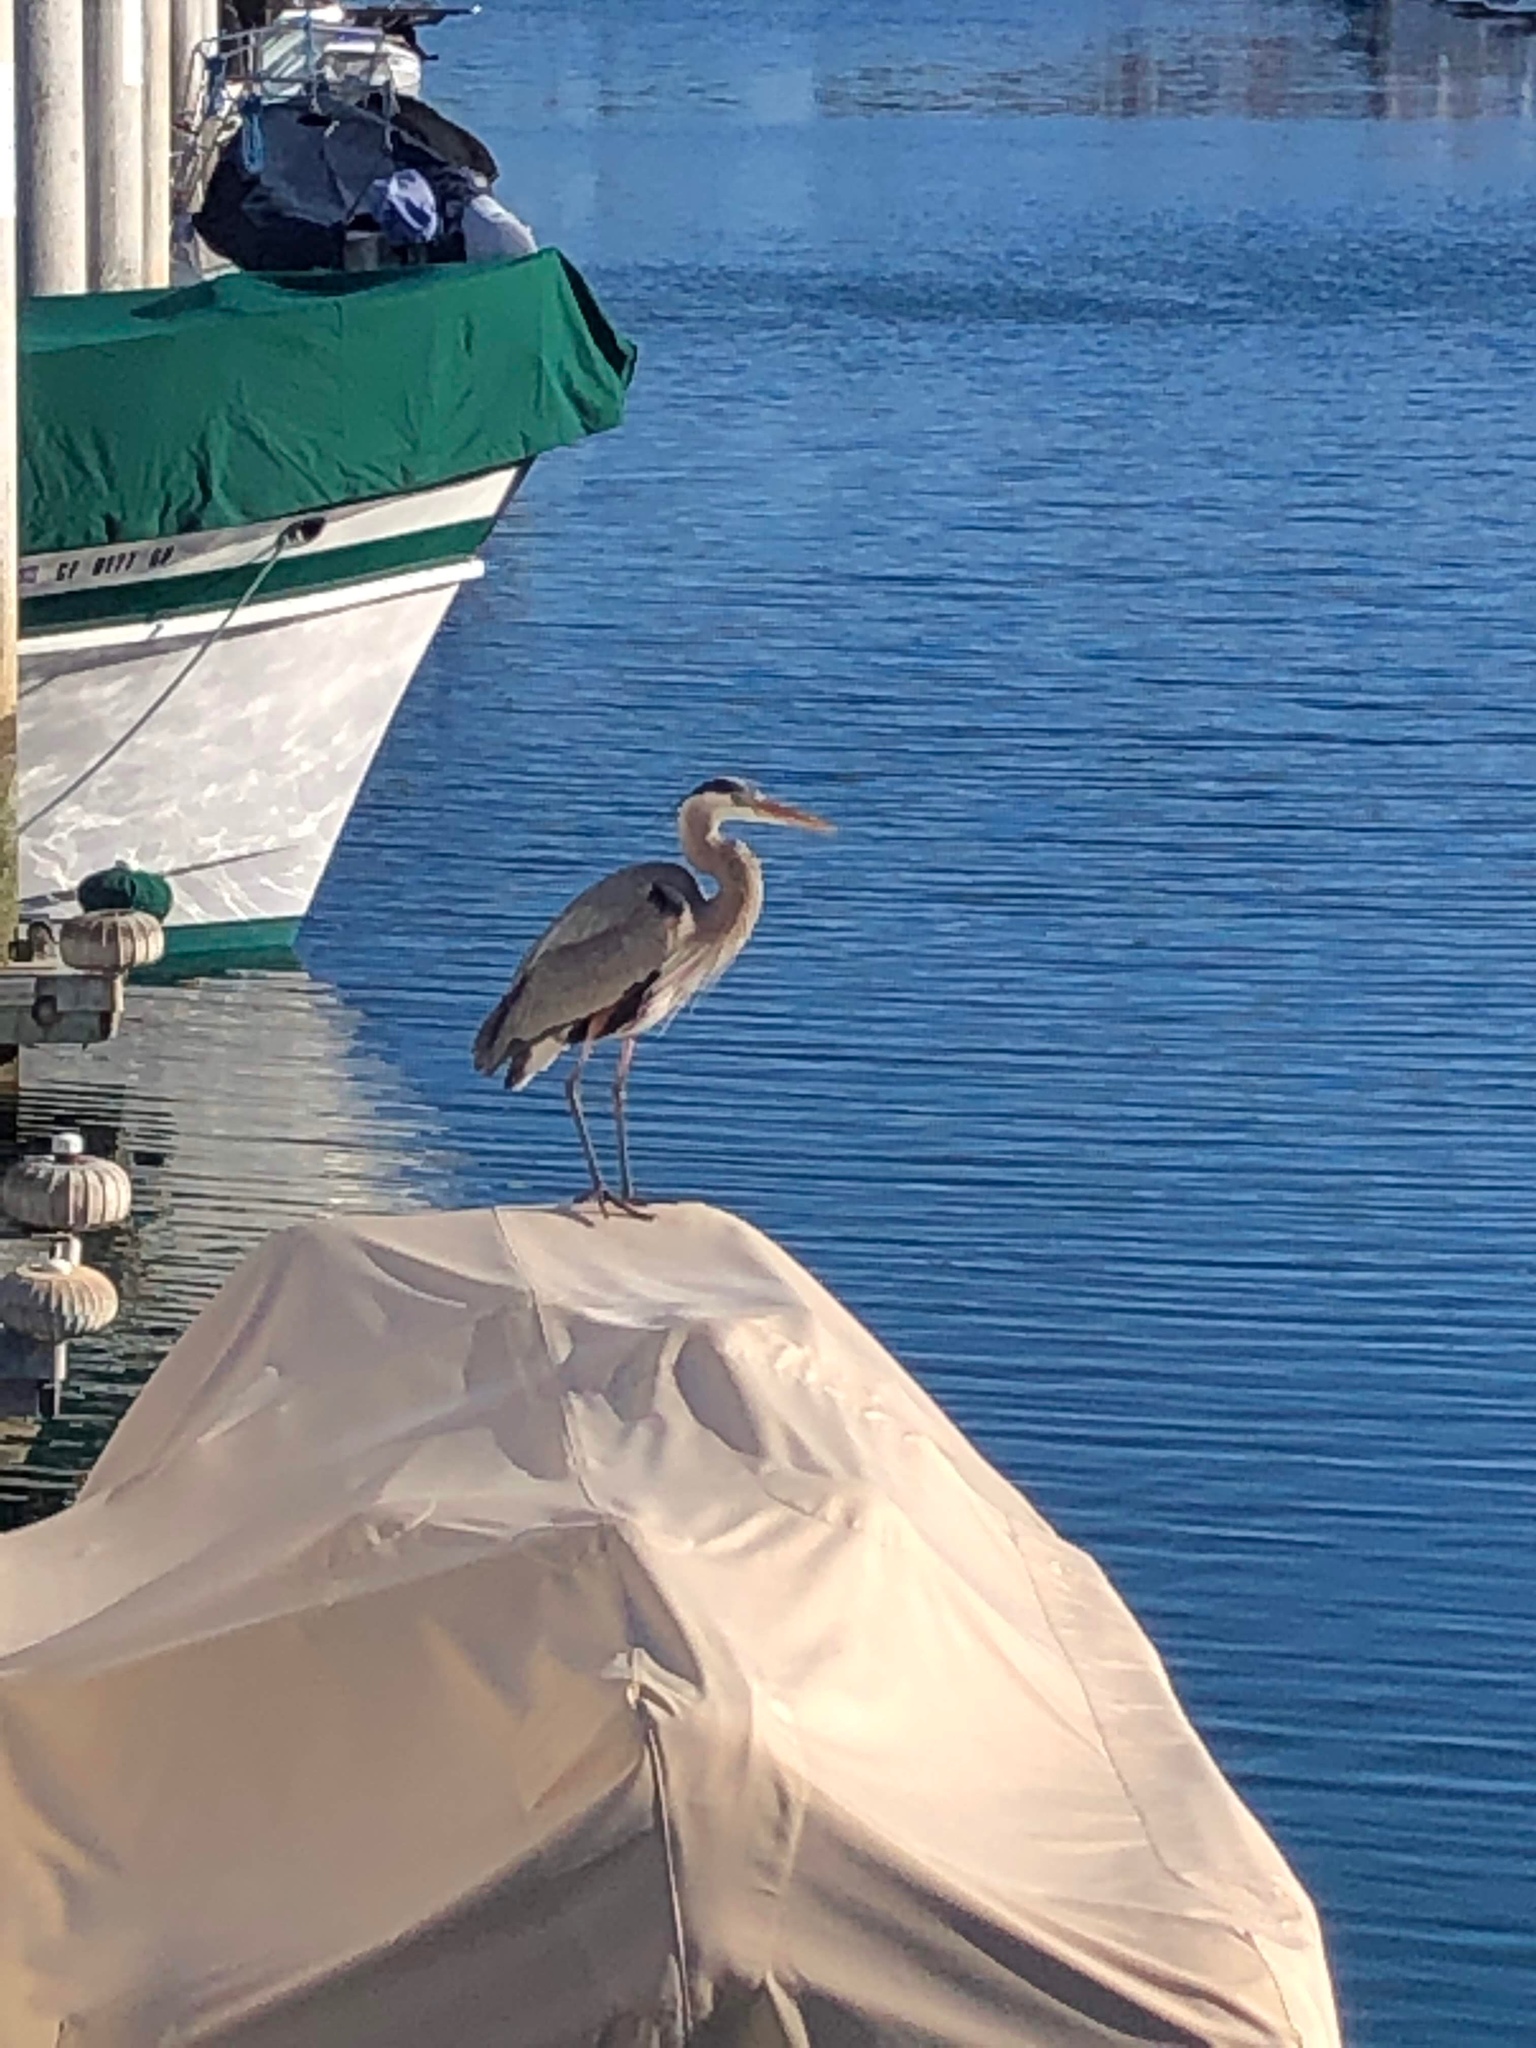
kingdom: Animalia
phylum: Chordata
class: Aves
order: Pelecaniformes
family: Ardeidae
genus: Ardea
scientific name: Ardea herodias
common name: Great blue heron
